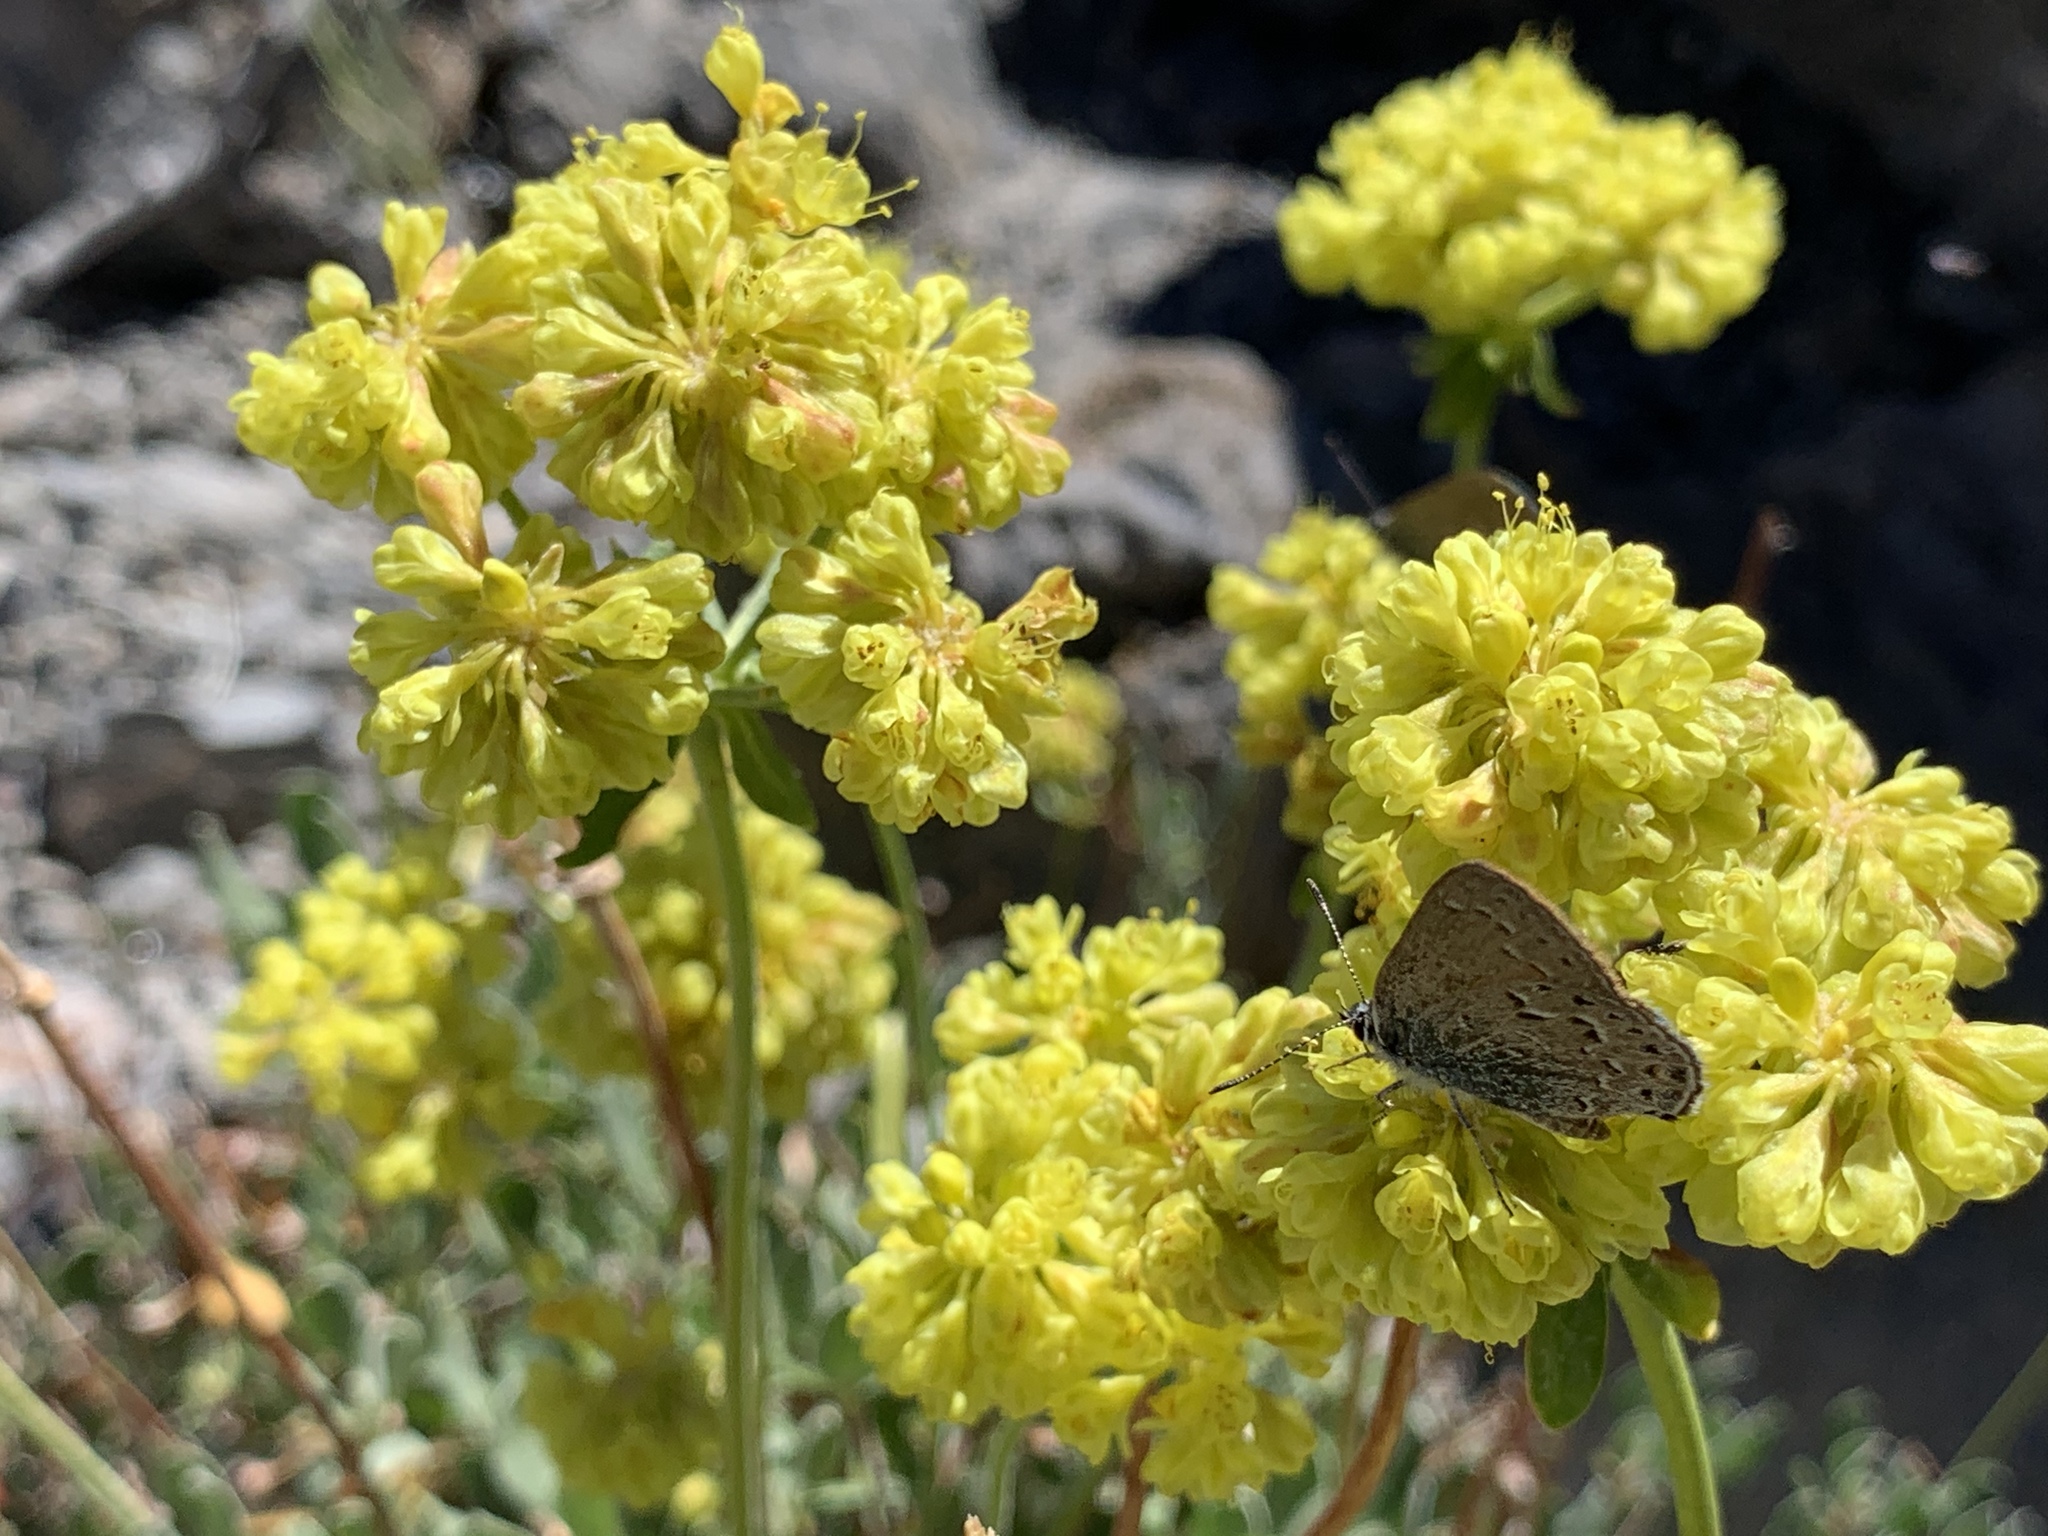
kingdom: Plantae
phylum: Tracheophyta
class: Magnoliopsida
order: Caryophyllales
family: Polygonaceae
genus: Eriogonum
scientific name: Eriogonum umbellatum
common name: Sulfur-buckwheat
